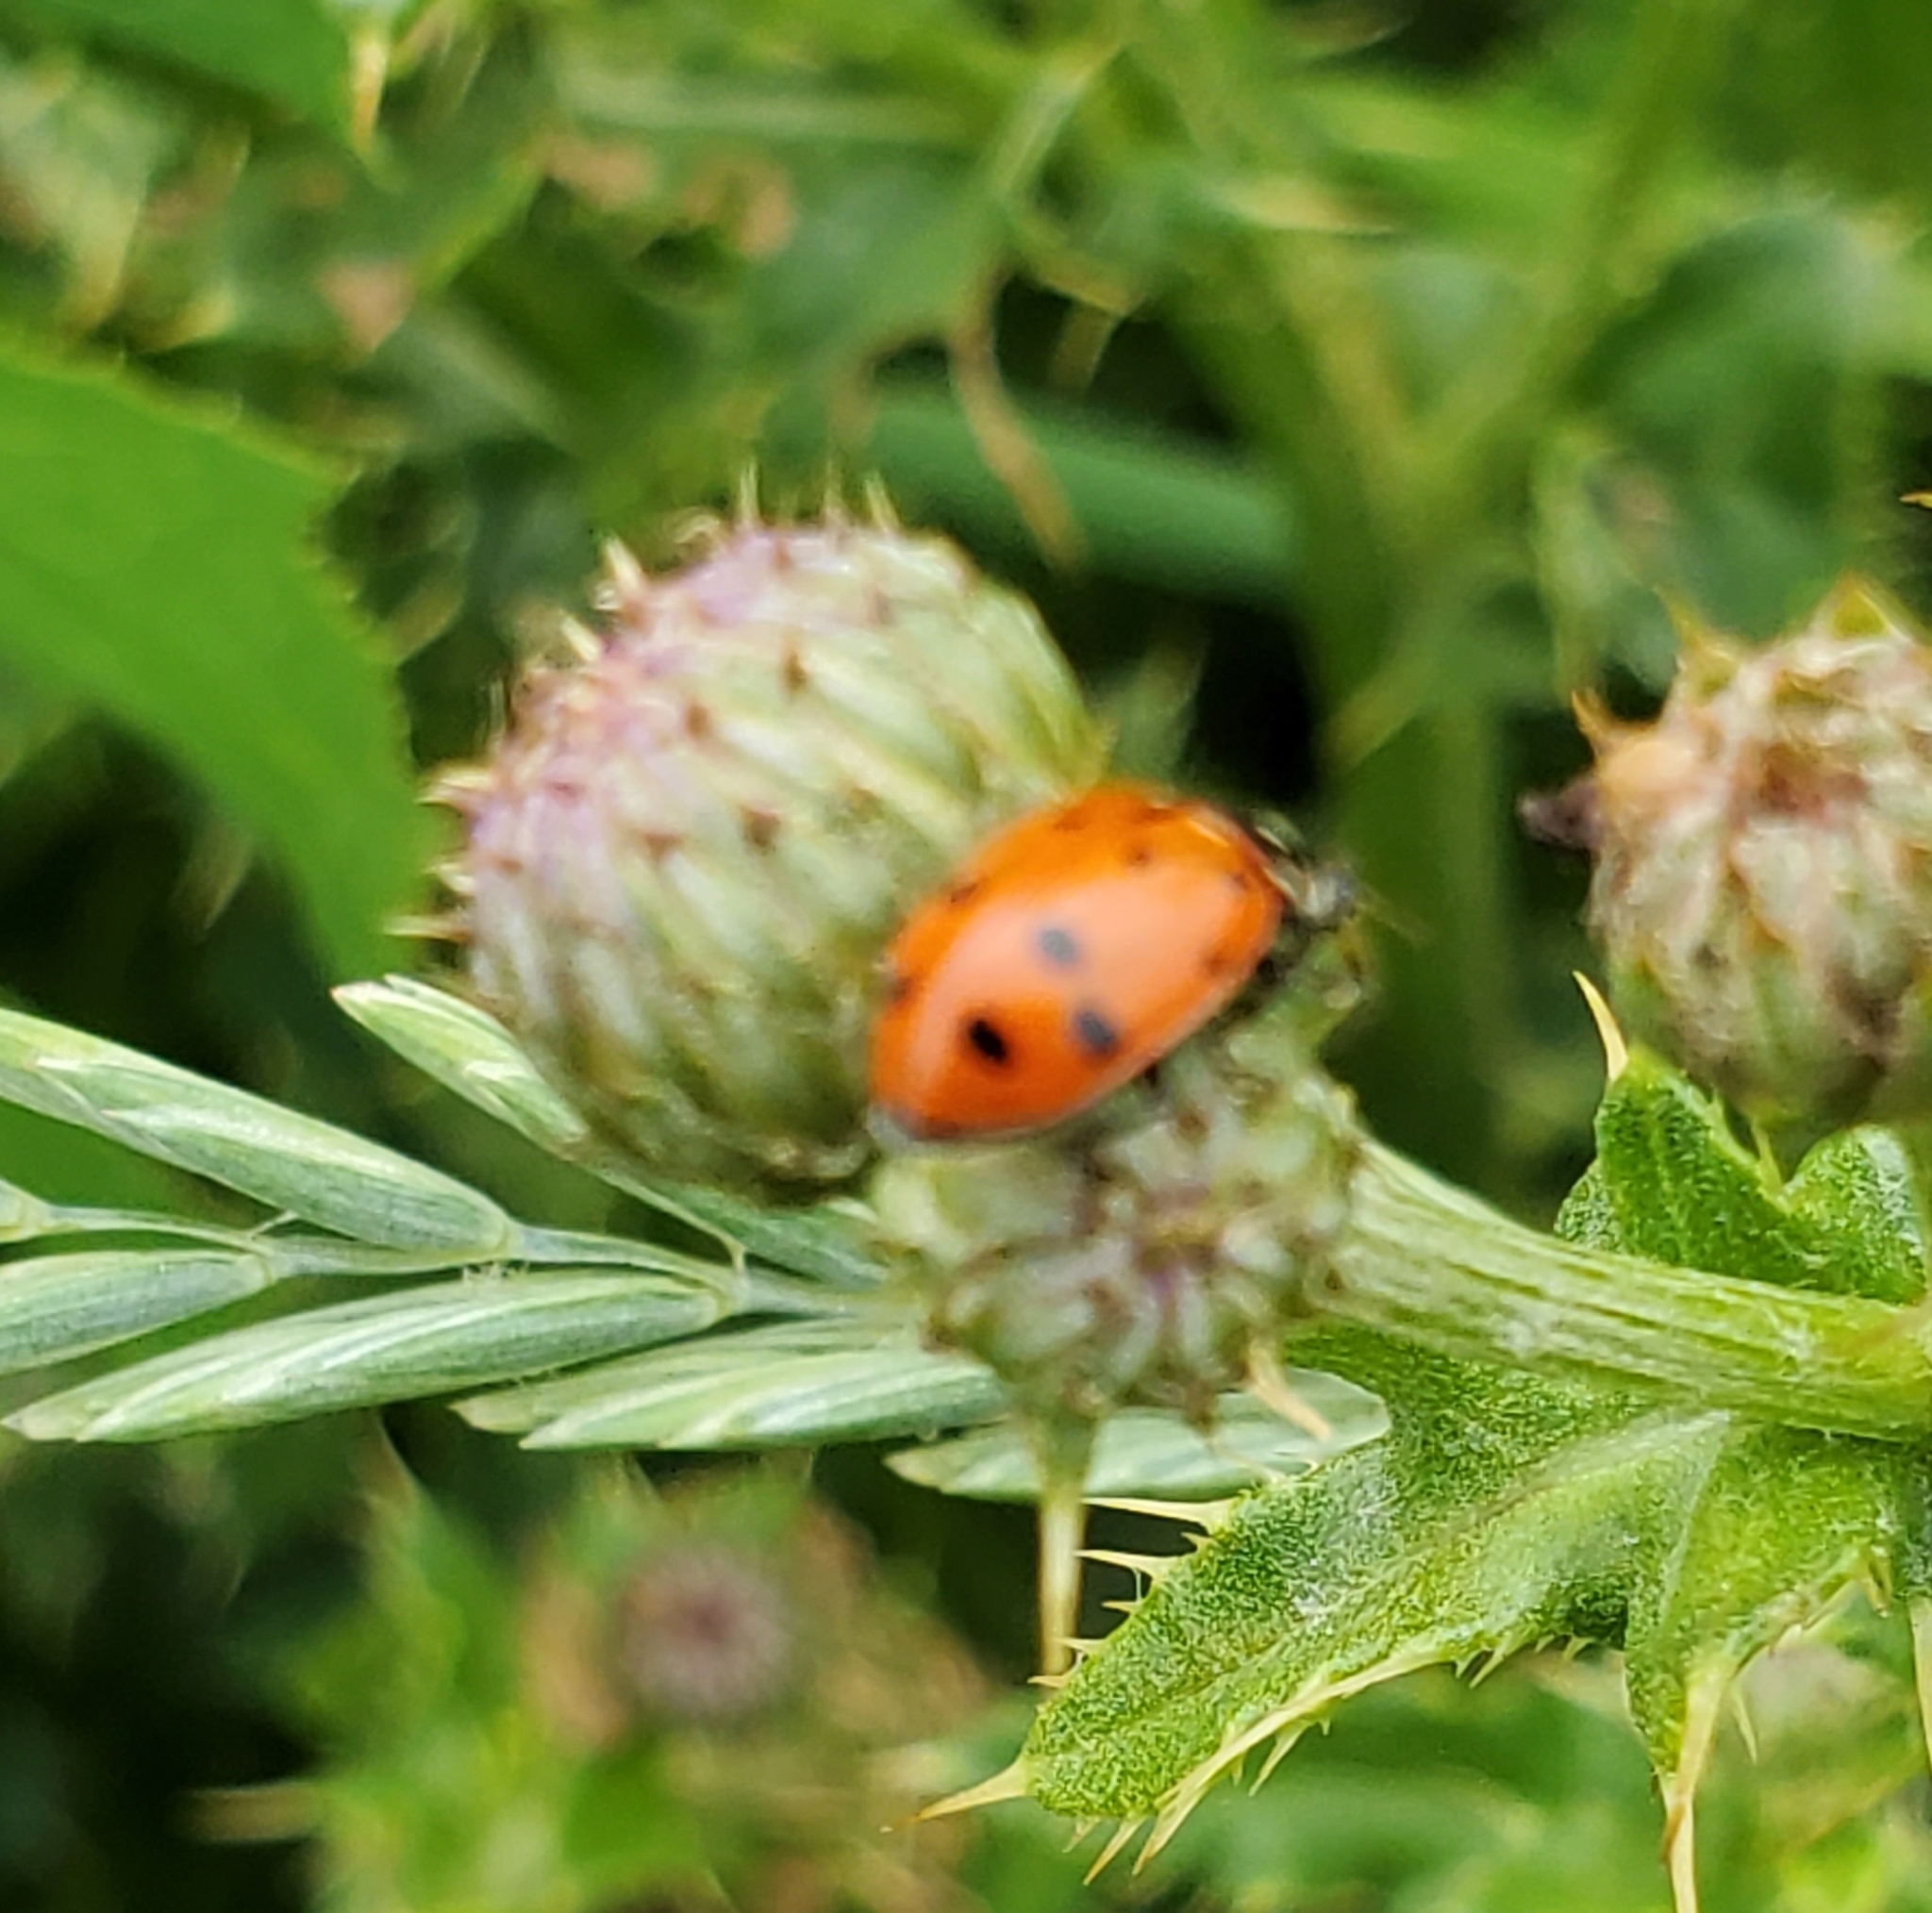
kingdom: Animalia
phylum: Arthropoda
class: Insecta
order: Coleoptera
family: Coccinellidae
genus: Hippodamia
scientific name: Hippodamia convergens
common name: Convergent lady beetle
